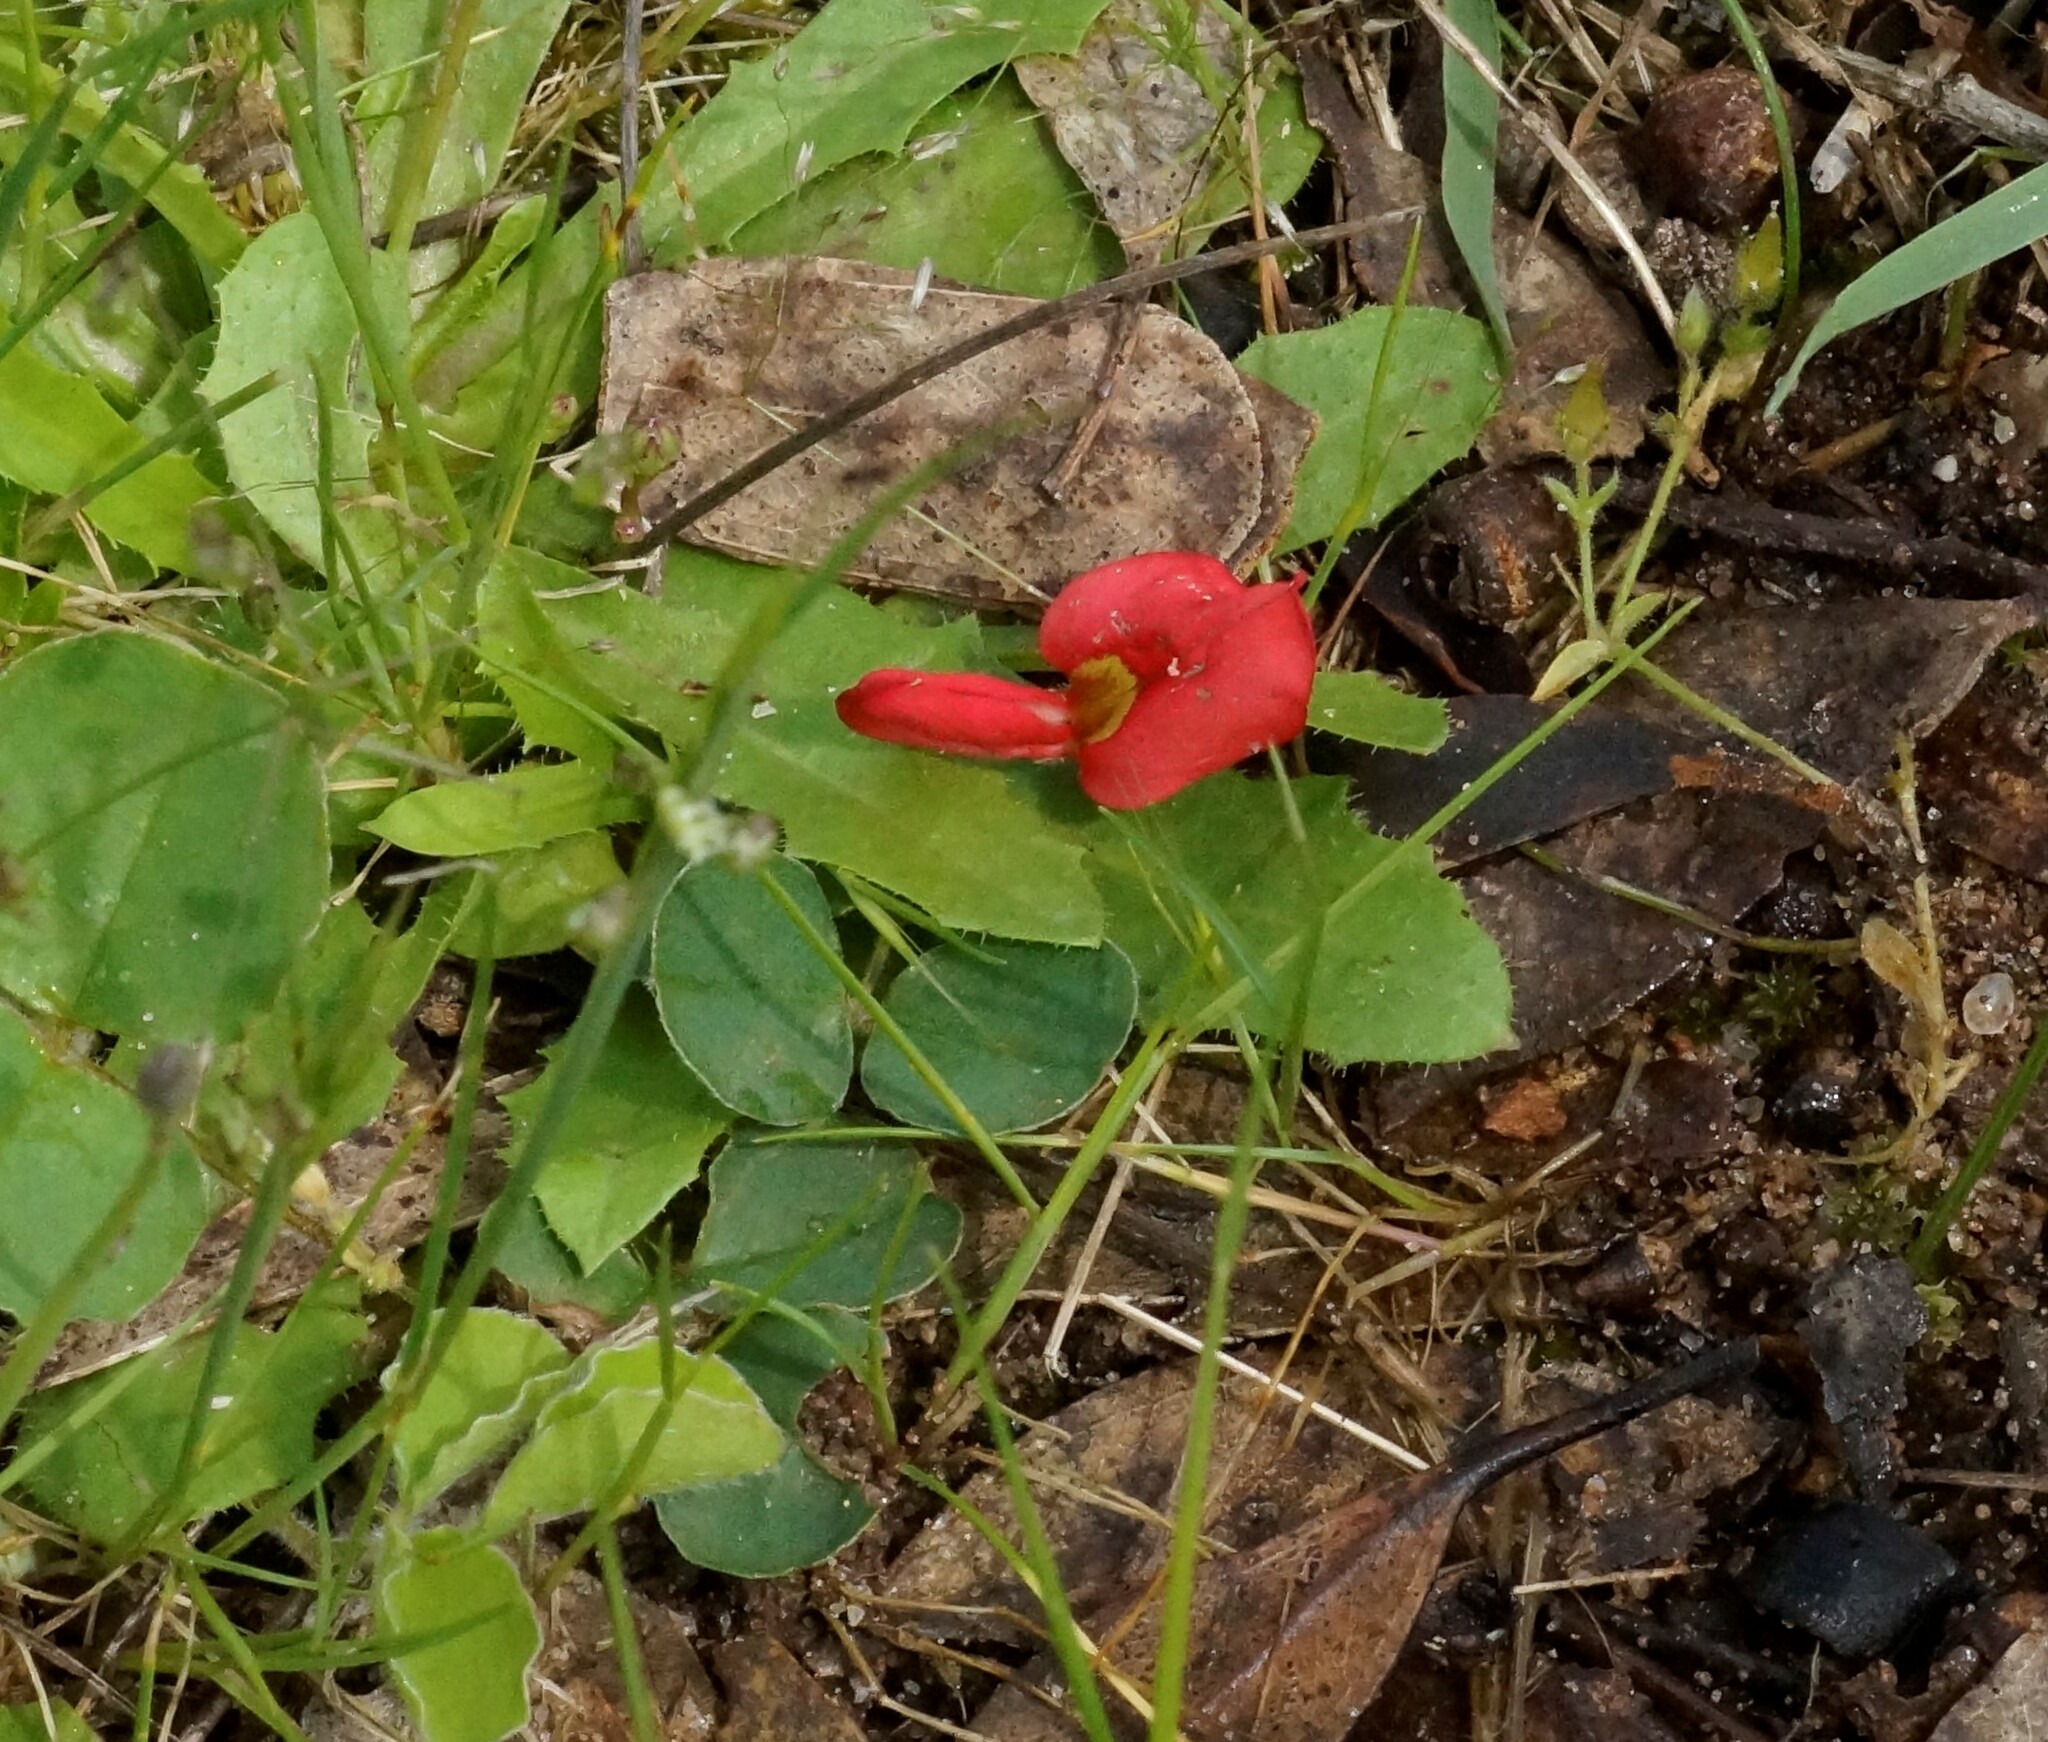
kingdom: Plantae
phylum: Tracheophyta
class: Magnoliopsida
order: Fabales
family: Fabaceae
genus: Kennedia
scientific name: Kennedia prostrata
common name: Running-postman
